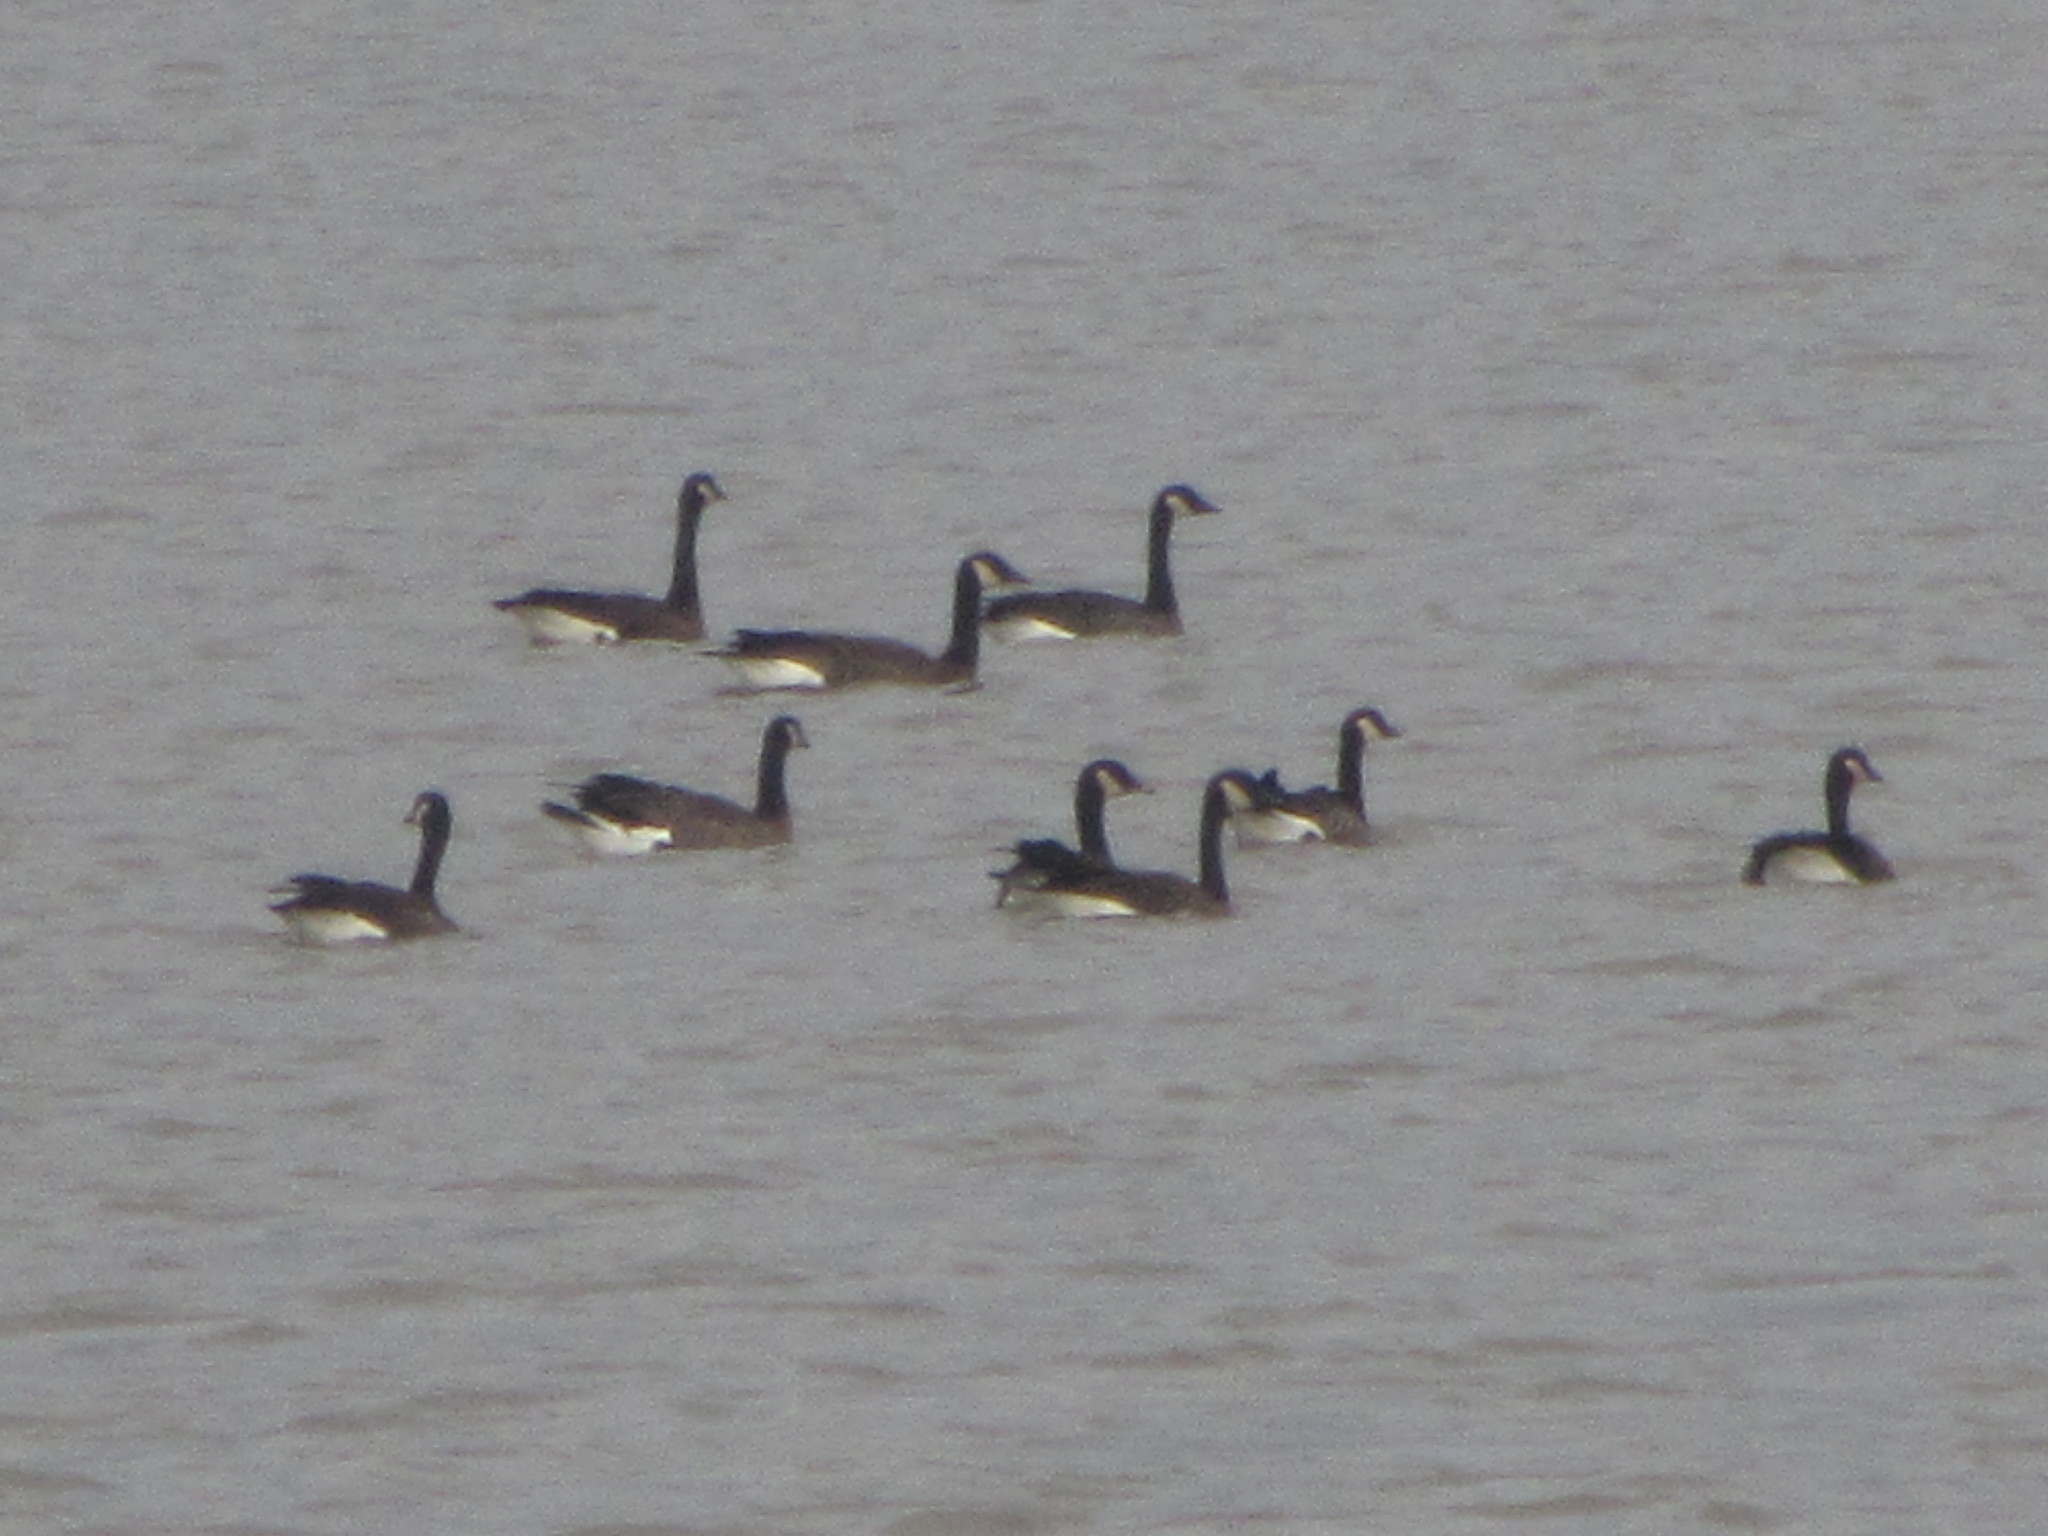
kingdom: Animalia
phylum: Chordata
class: Aves
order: Anseriformes
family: Anatidae
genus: Branta
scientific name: Branta canadensis
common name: Canada goose
